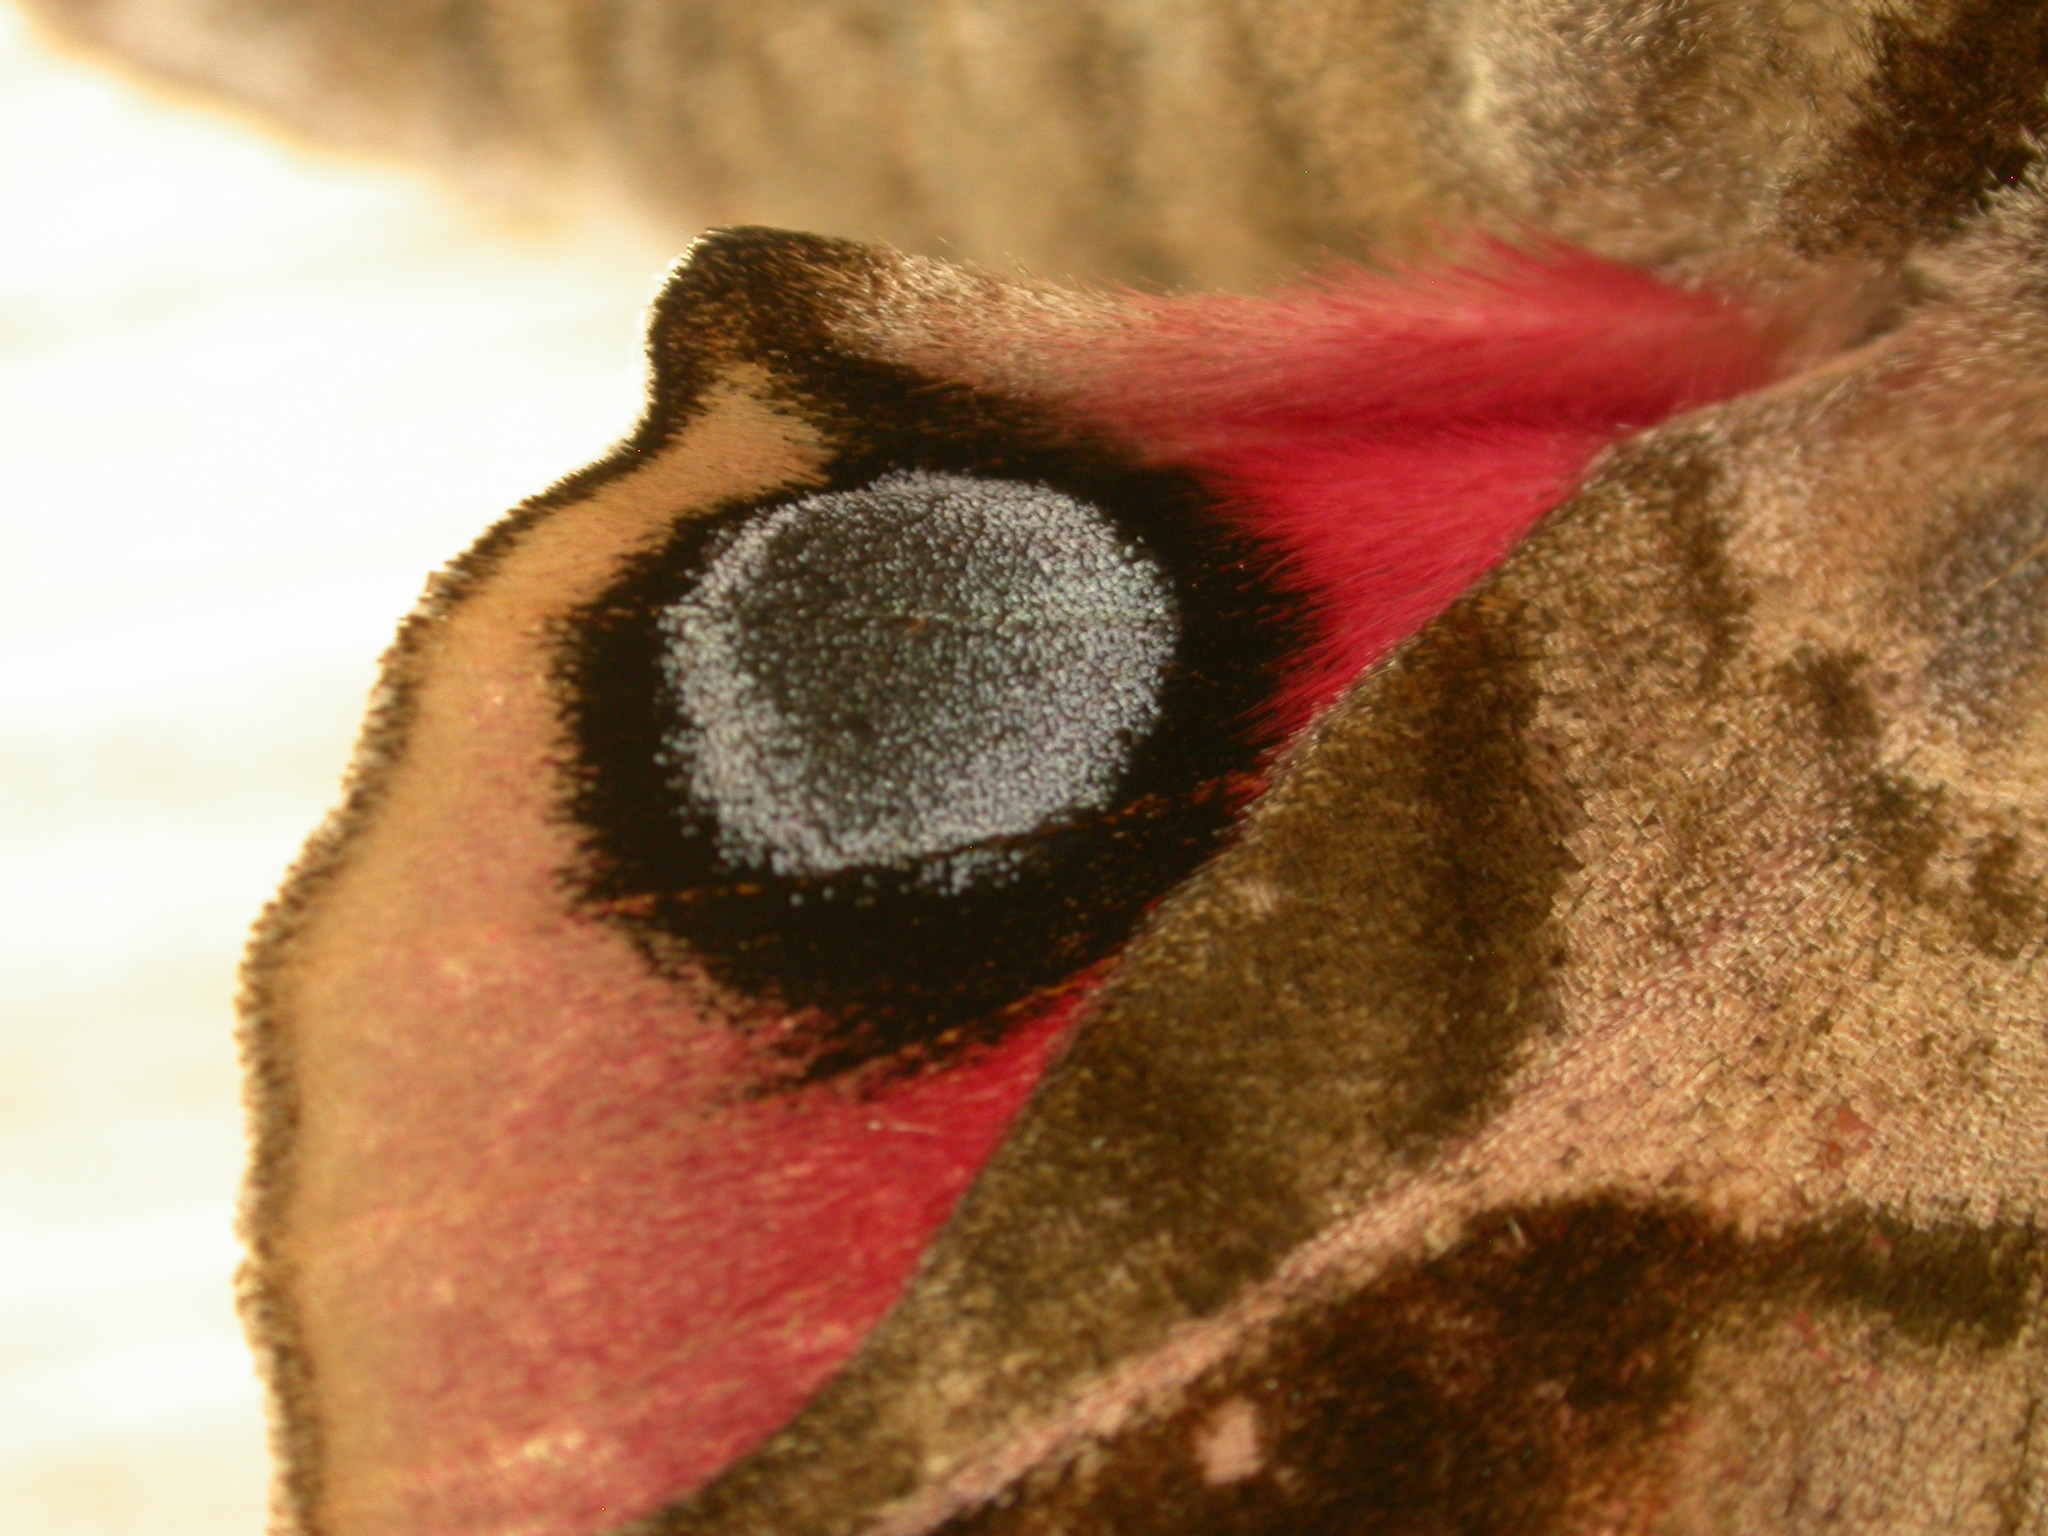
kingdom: Animalia
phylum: Arthropoda
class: Insecta
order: Lepidoptera
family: Sphingidae
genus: Smerinthus
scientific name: Smerinthus ocellata
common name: Eyed hawk-moth
